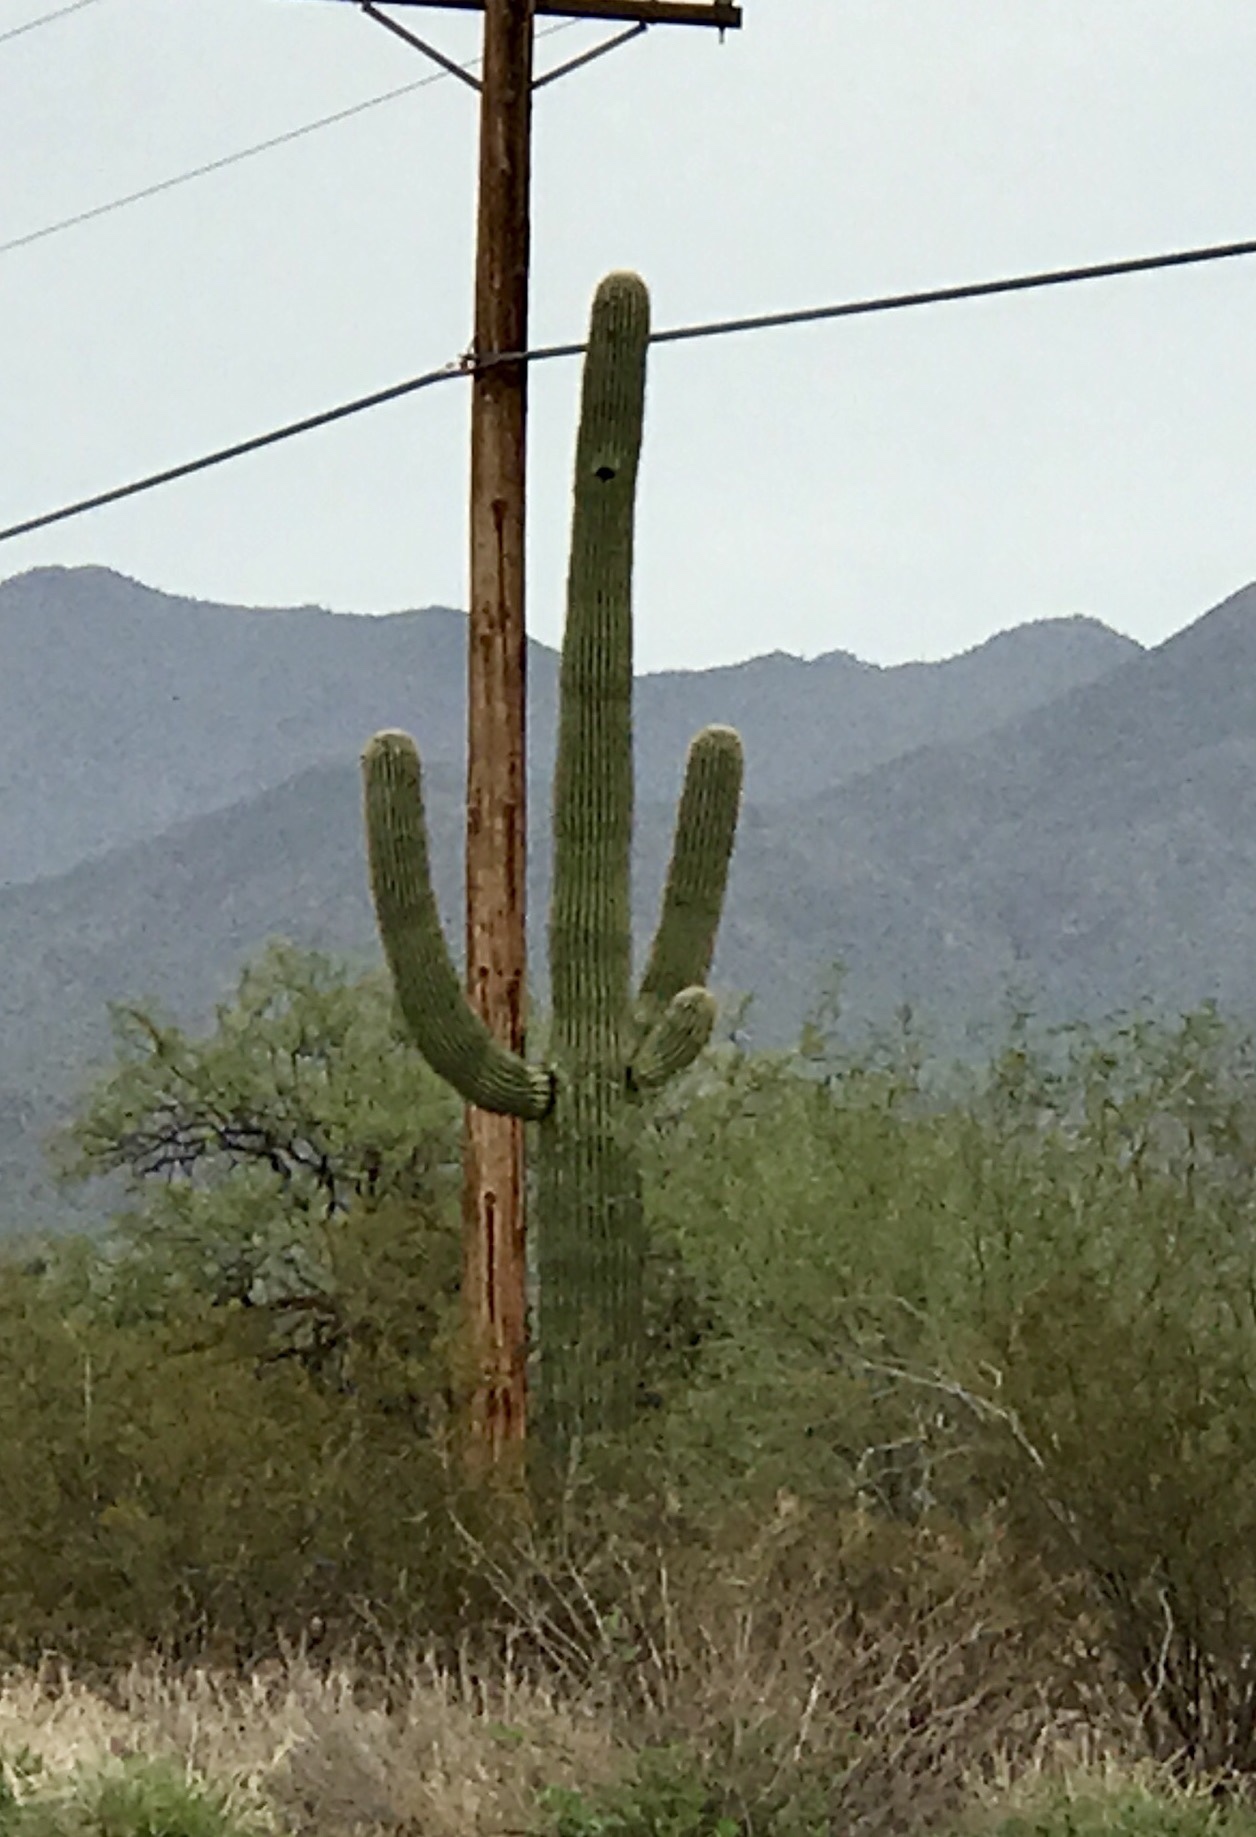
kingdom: Plantae
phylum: Tracheophyta
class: Magnoliopsida
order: Caryophyllales
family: Cactaceae
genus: Carnegiea
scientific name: Carnegiea gigantea
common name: Saguaro
